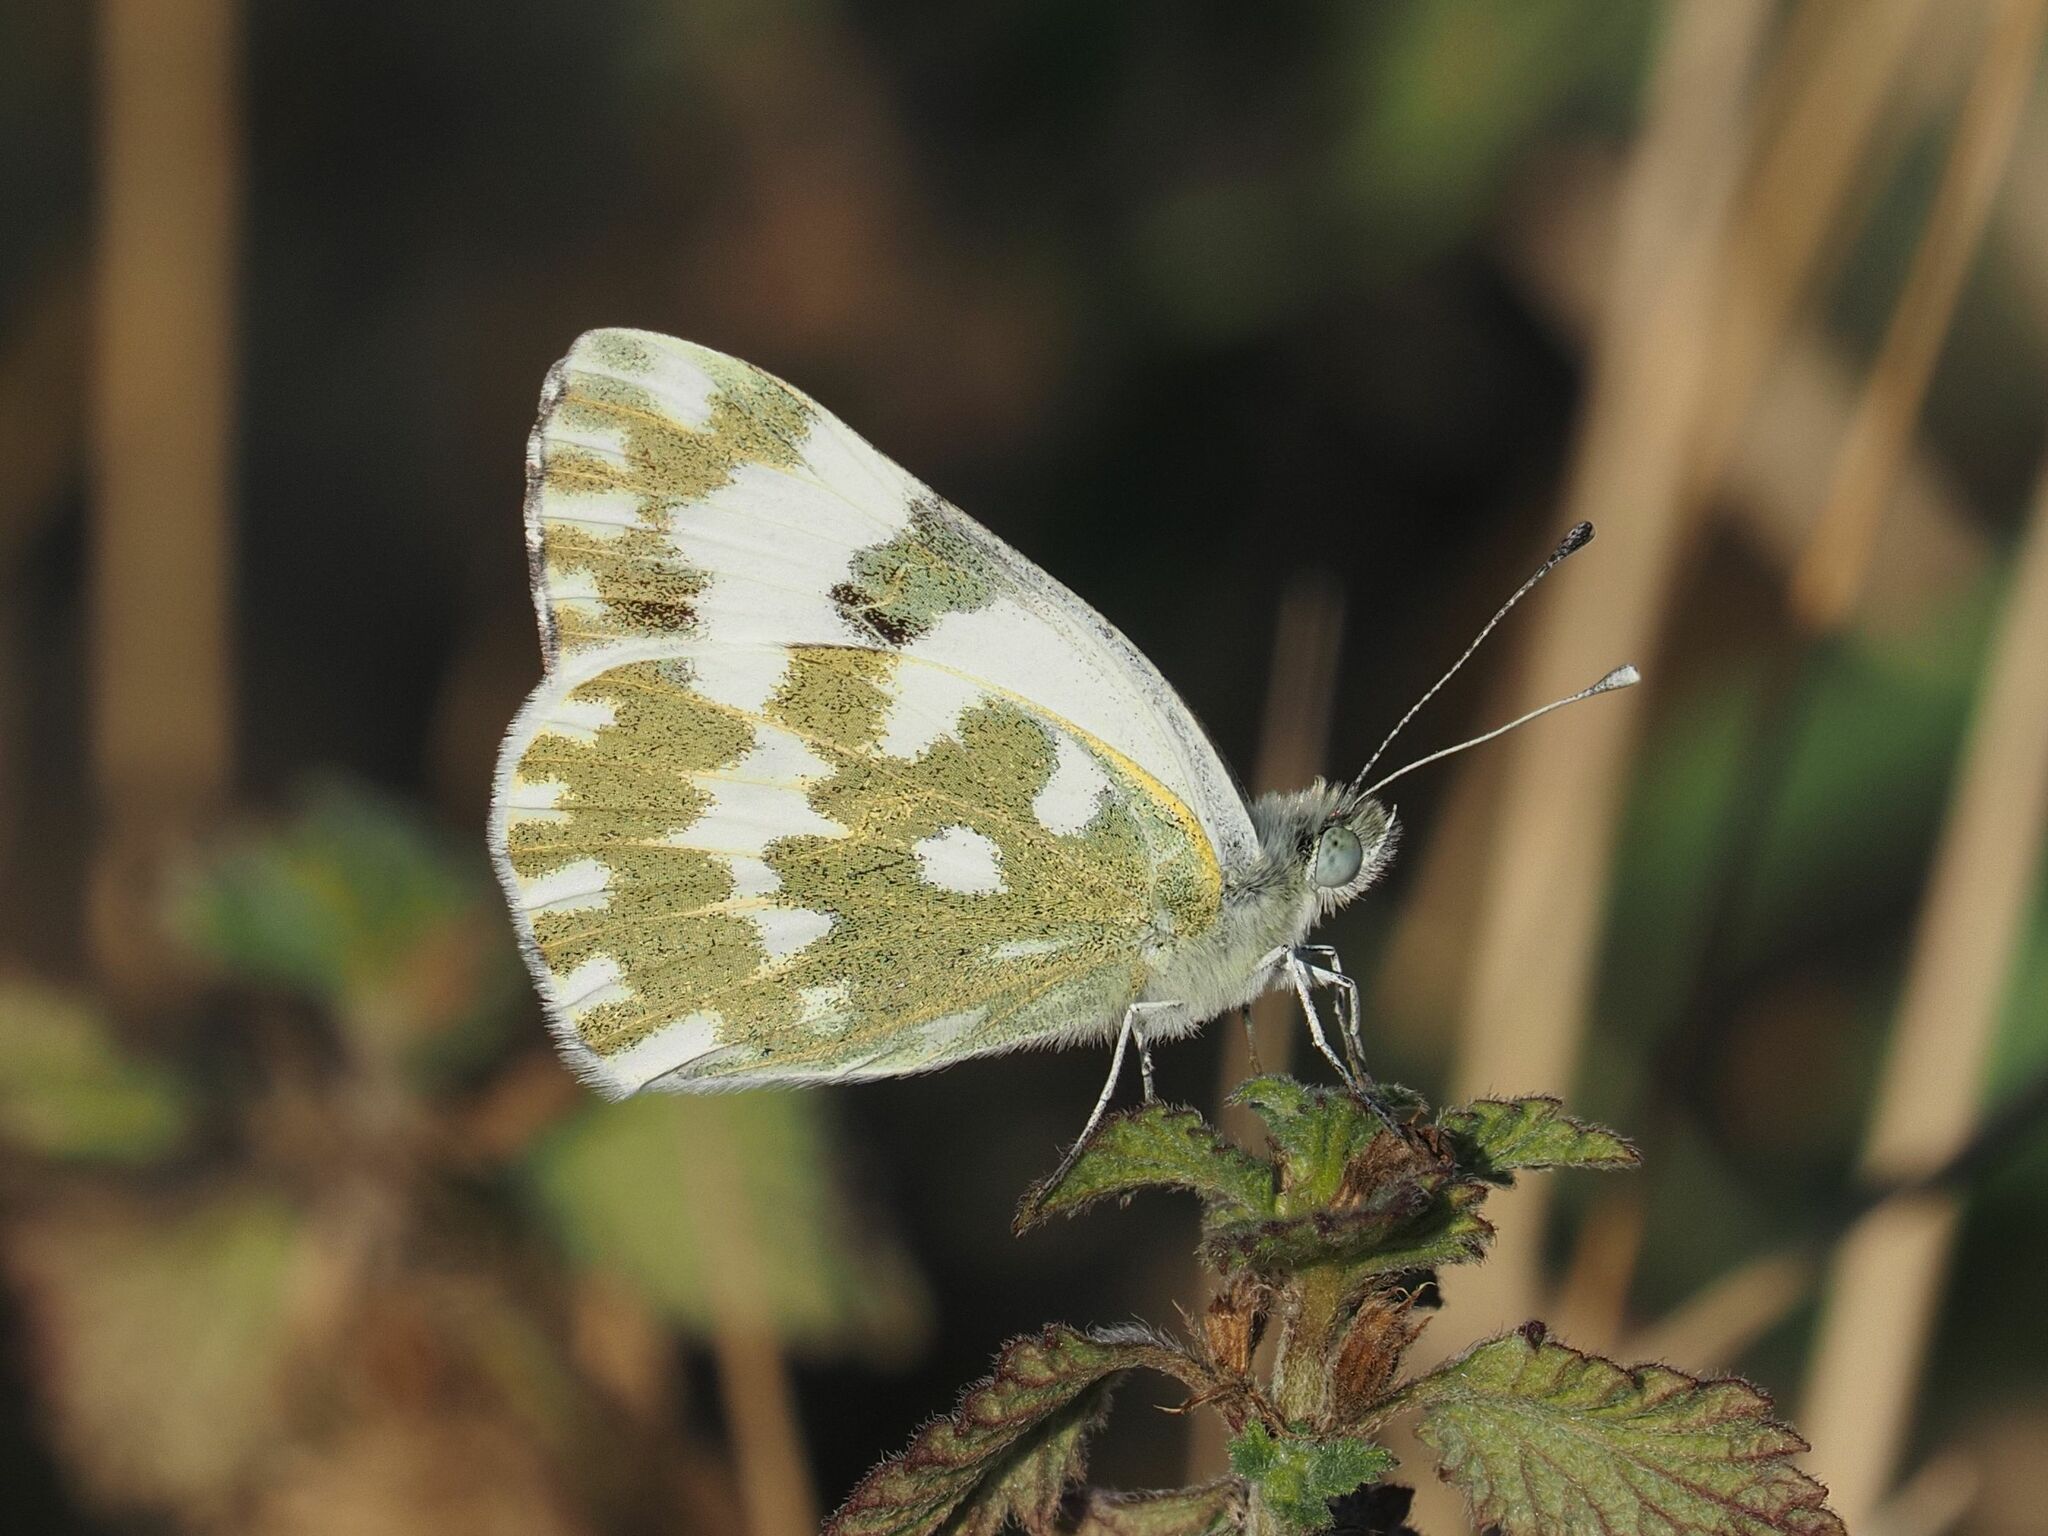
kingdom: Animalia
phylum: Arthropoda
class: Insecta
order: Lepidoptera
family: Pieridae
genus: Pontia
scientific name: Pontia edusa
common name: Eastern bath white
